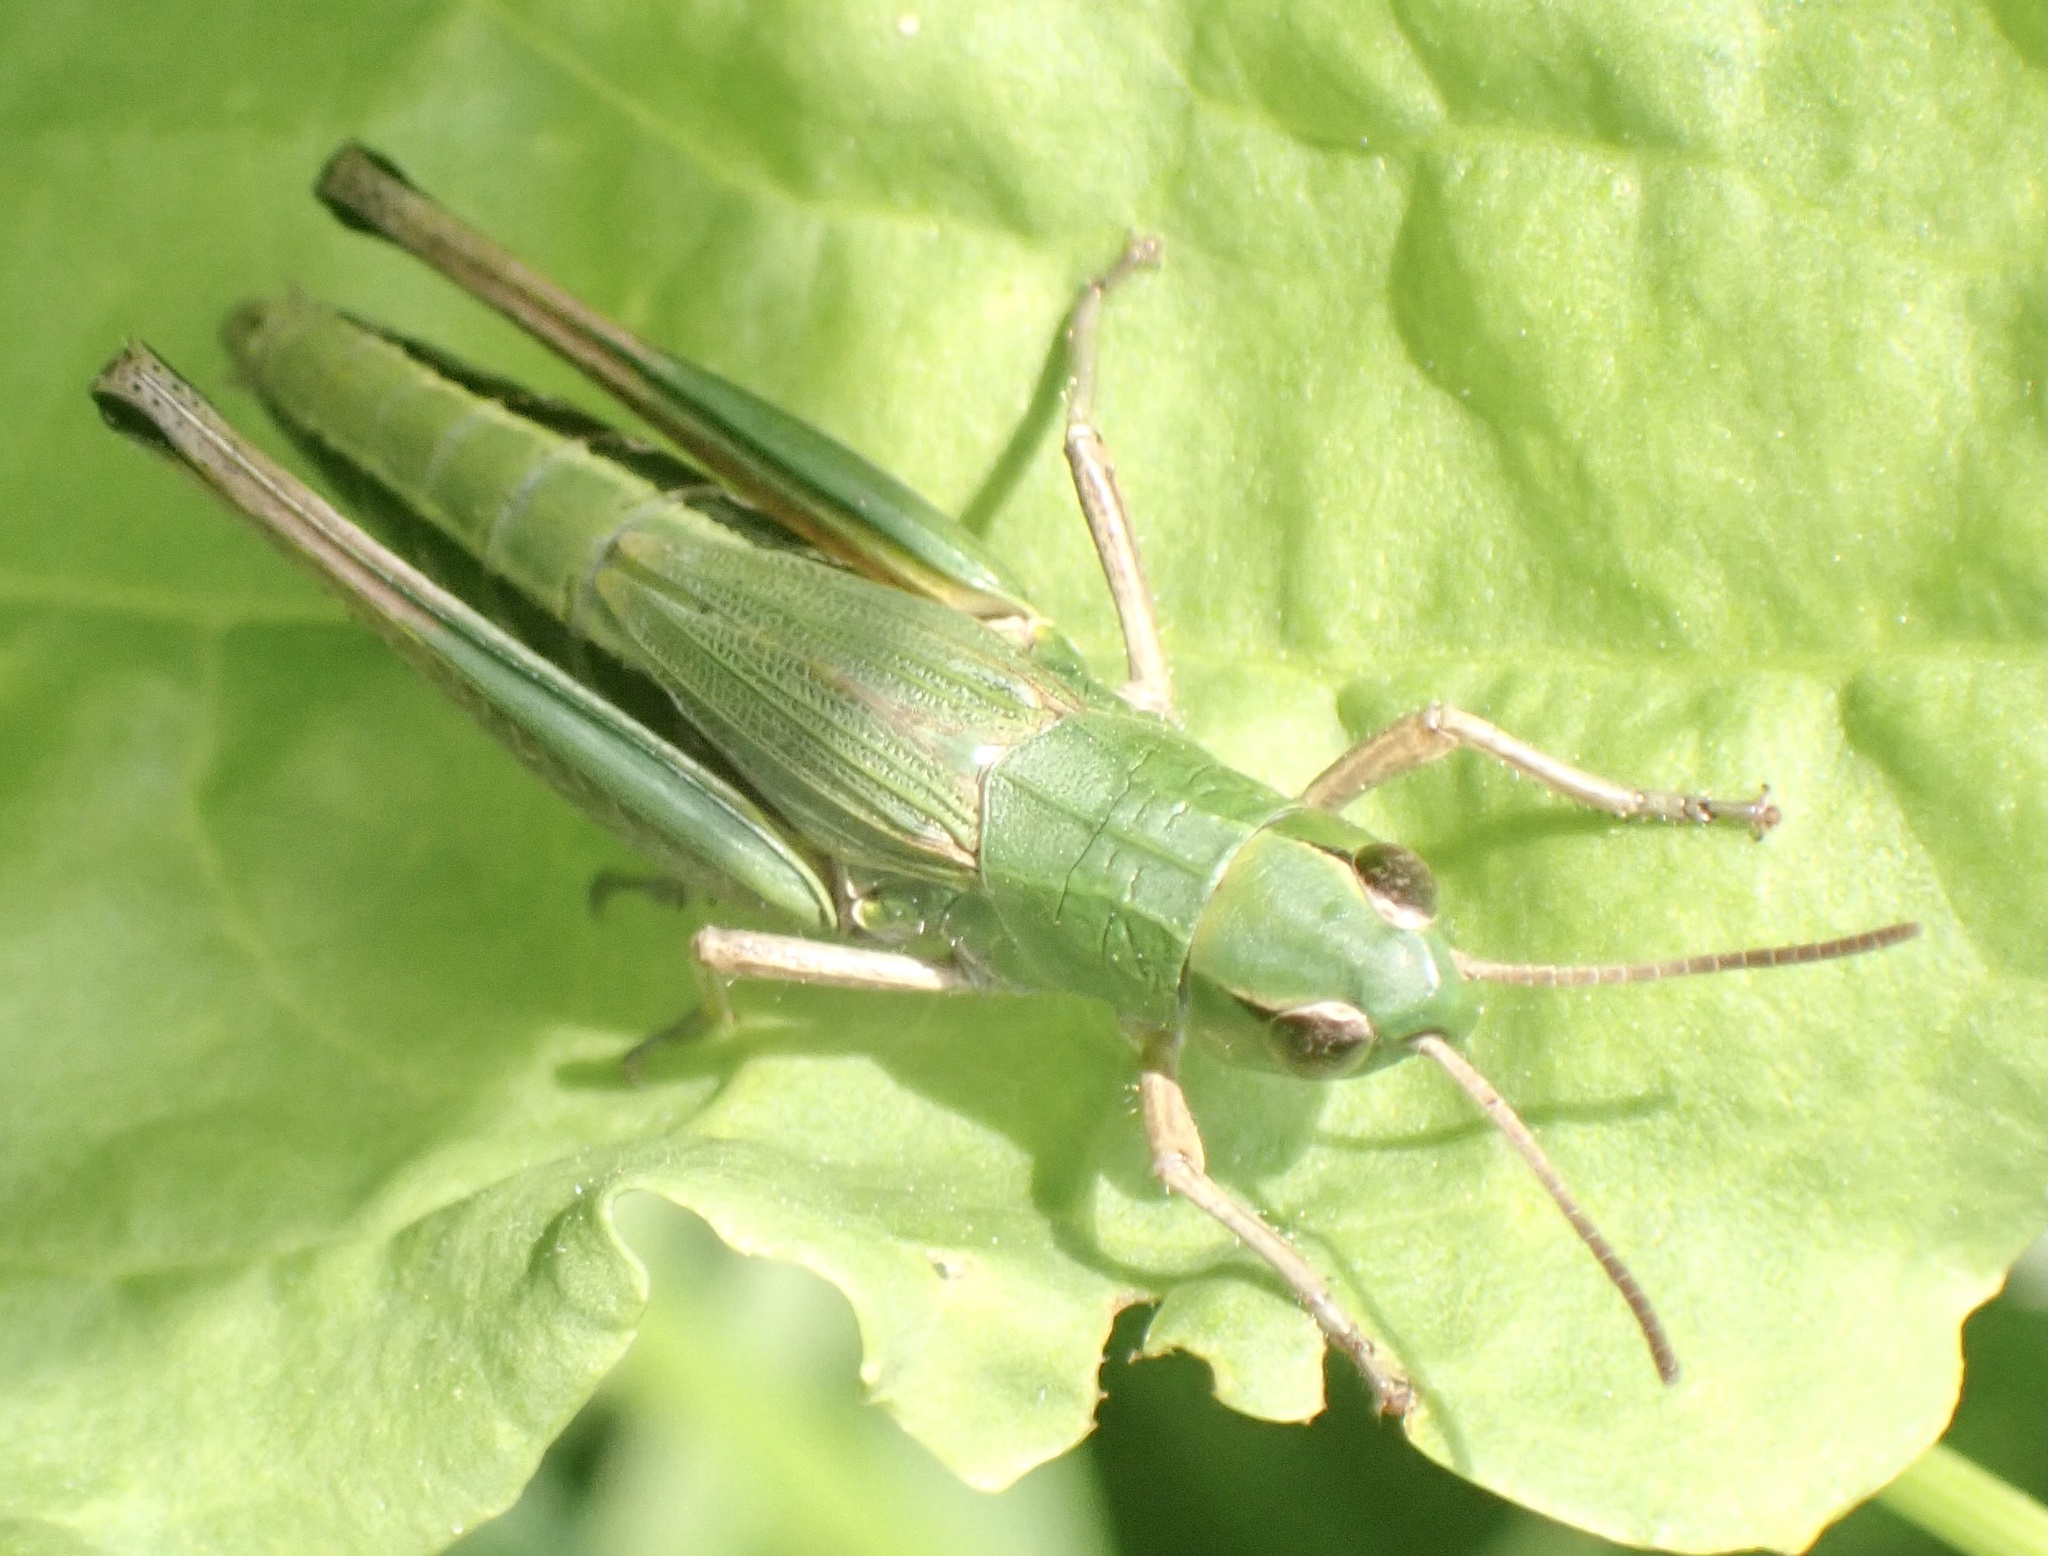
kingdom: Animalia
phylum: Arthropoda
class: Insecta
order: Orthoptera
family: Acrididae
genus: Pseudochorthippus
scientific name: Pseudochorthippus parallelus
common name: Meadow grasshopper
